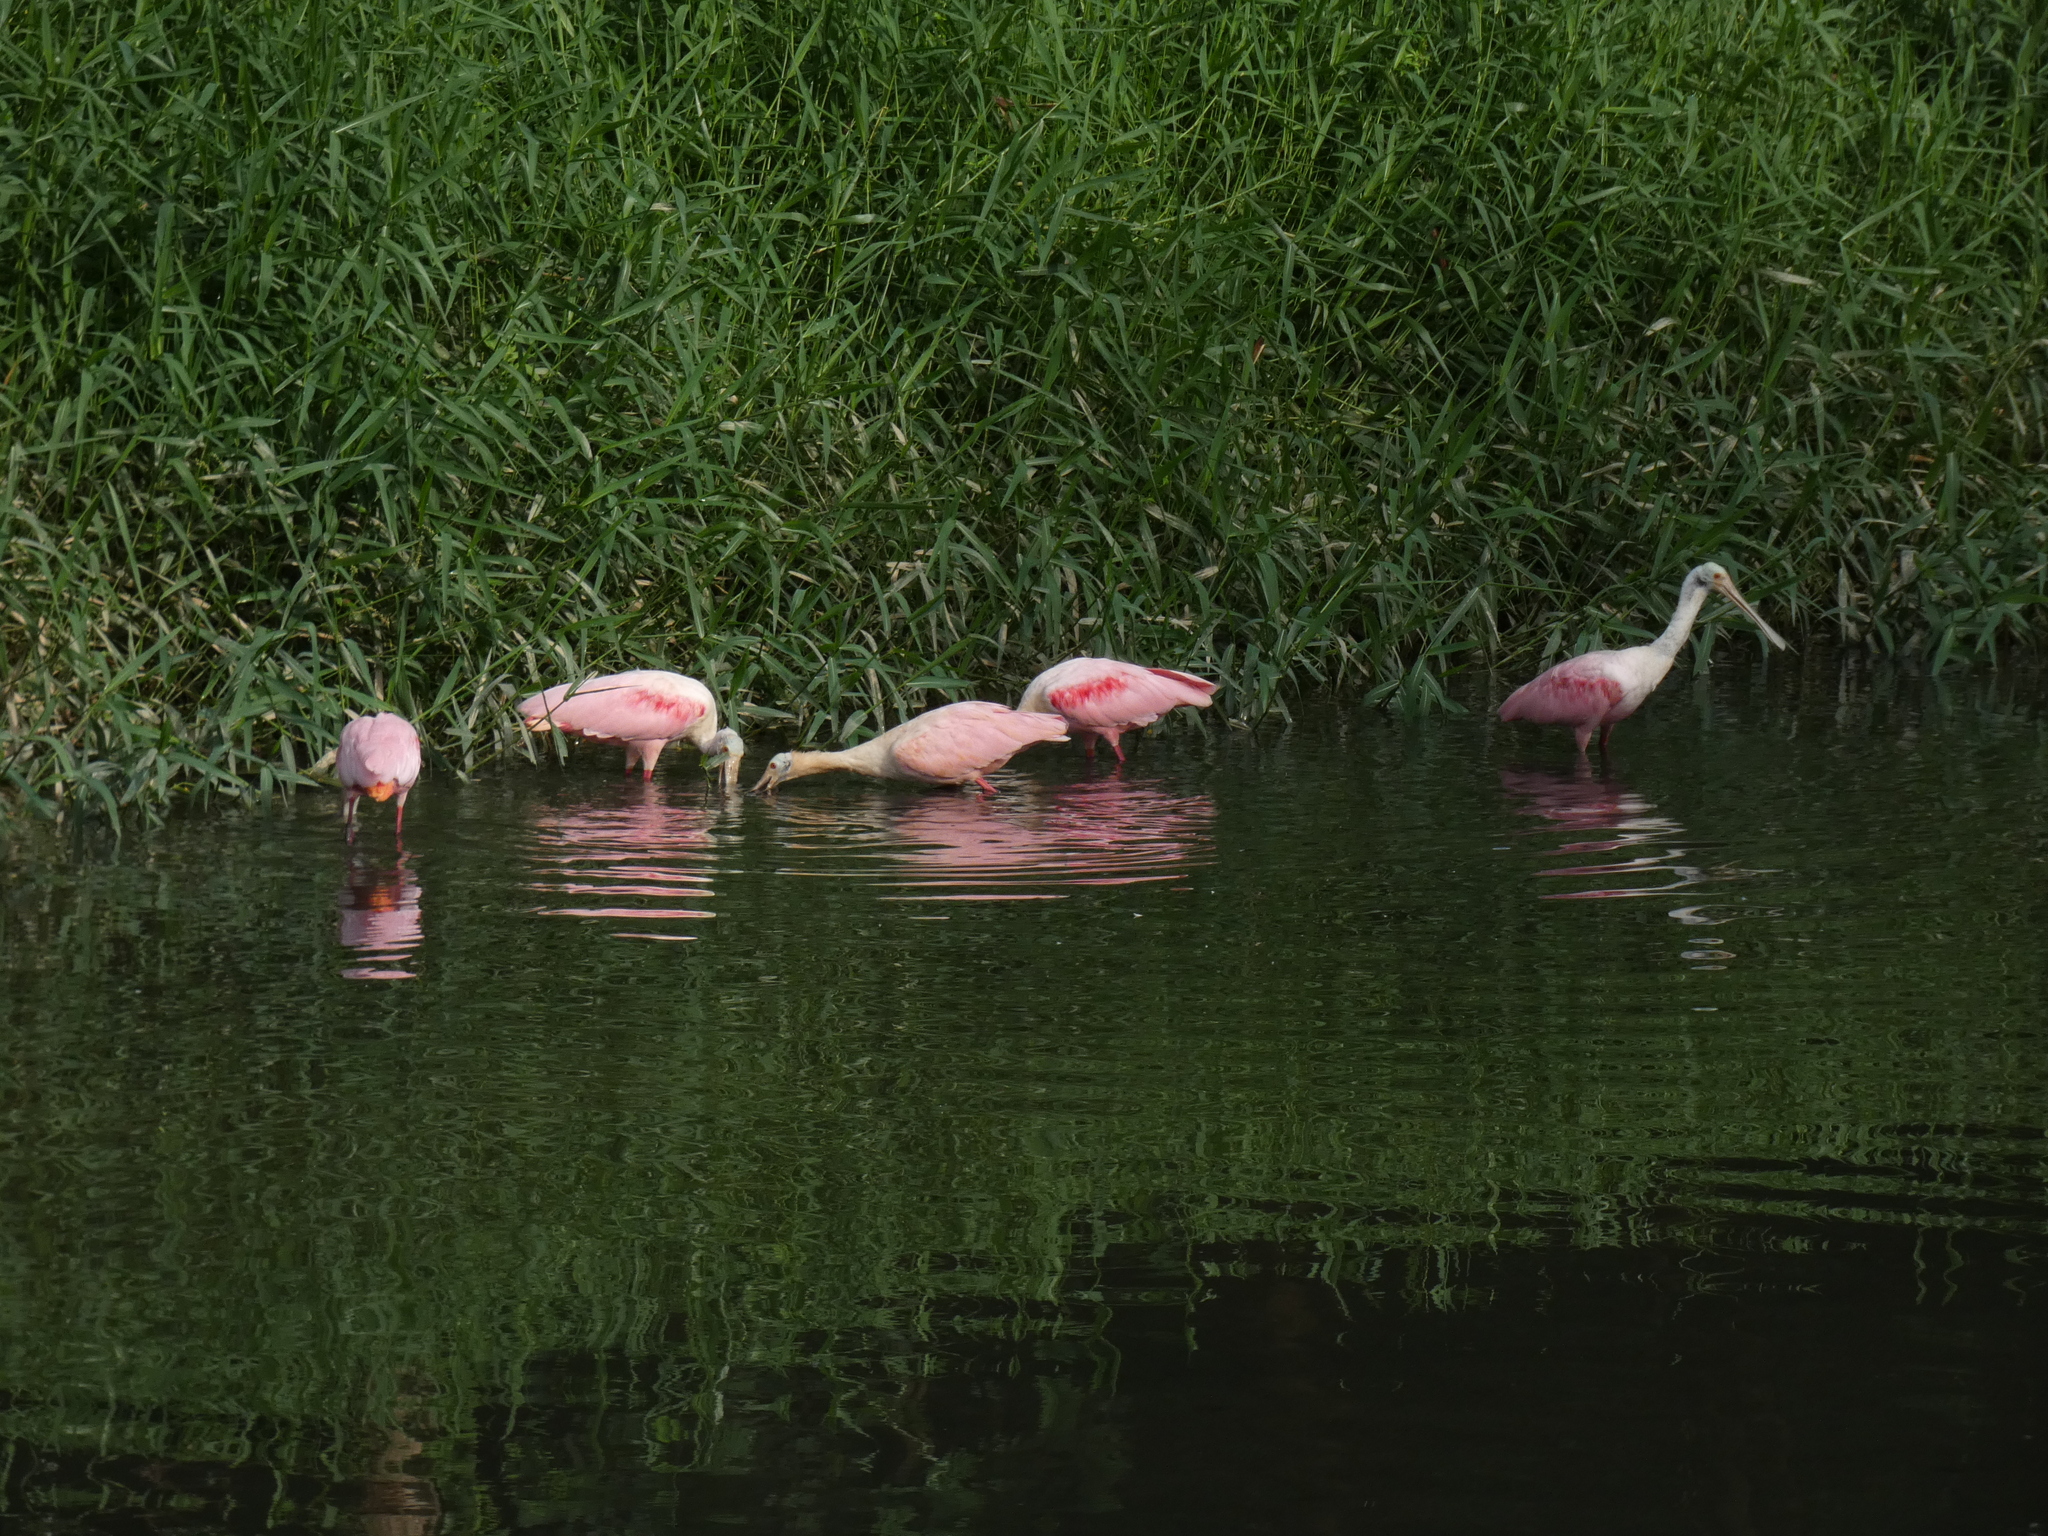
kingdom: Animalia
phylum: Chordata
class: Aves
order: Pelecaniformes
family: Threskiornithidae
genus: Platalea
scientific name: Platalea ajaja
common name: Roseate spoonbill
